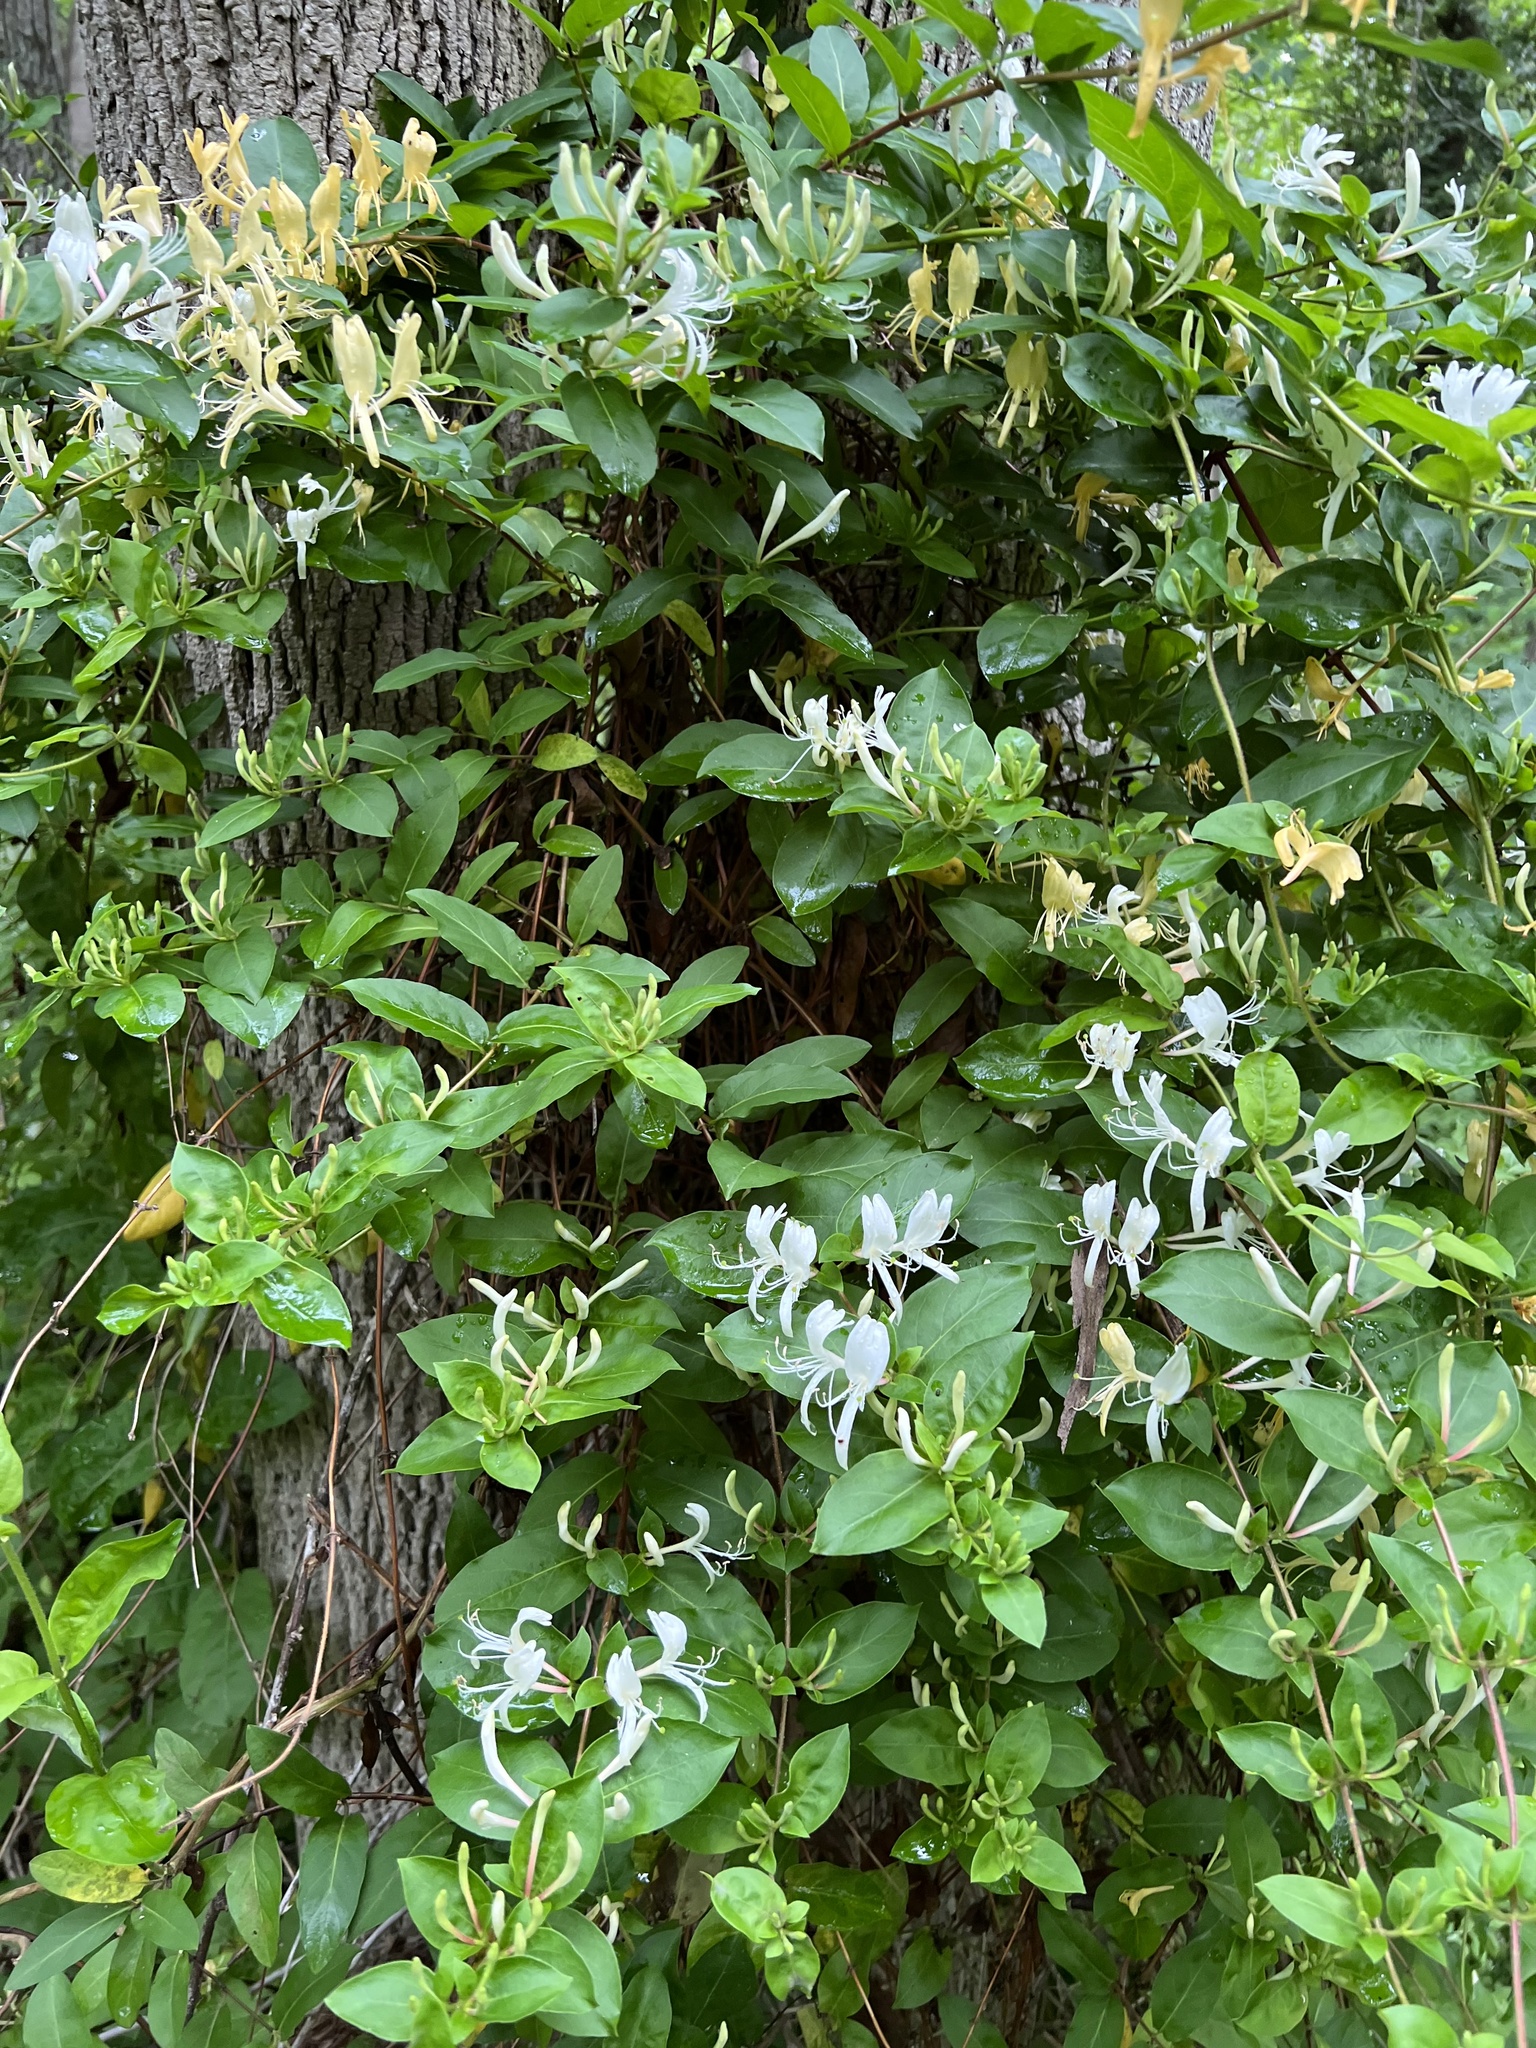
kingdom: Plantae
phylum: Tracheophyta
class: Magnoliopsida
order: Dipsacales
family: Caprifoliaceae
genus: Lonicera
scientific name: Lonicera japonica
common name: Japanese honeysuckle
